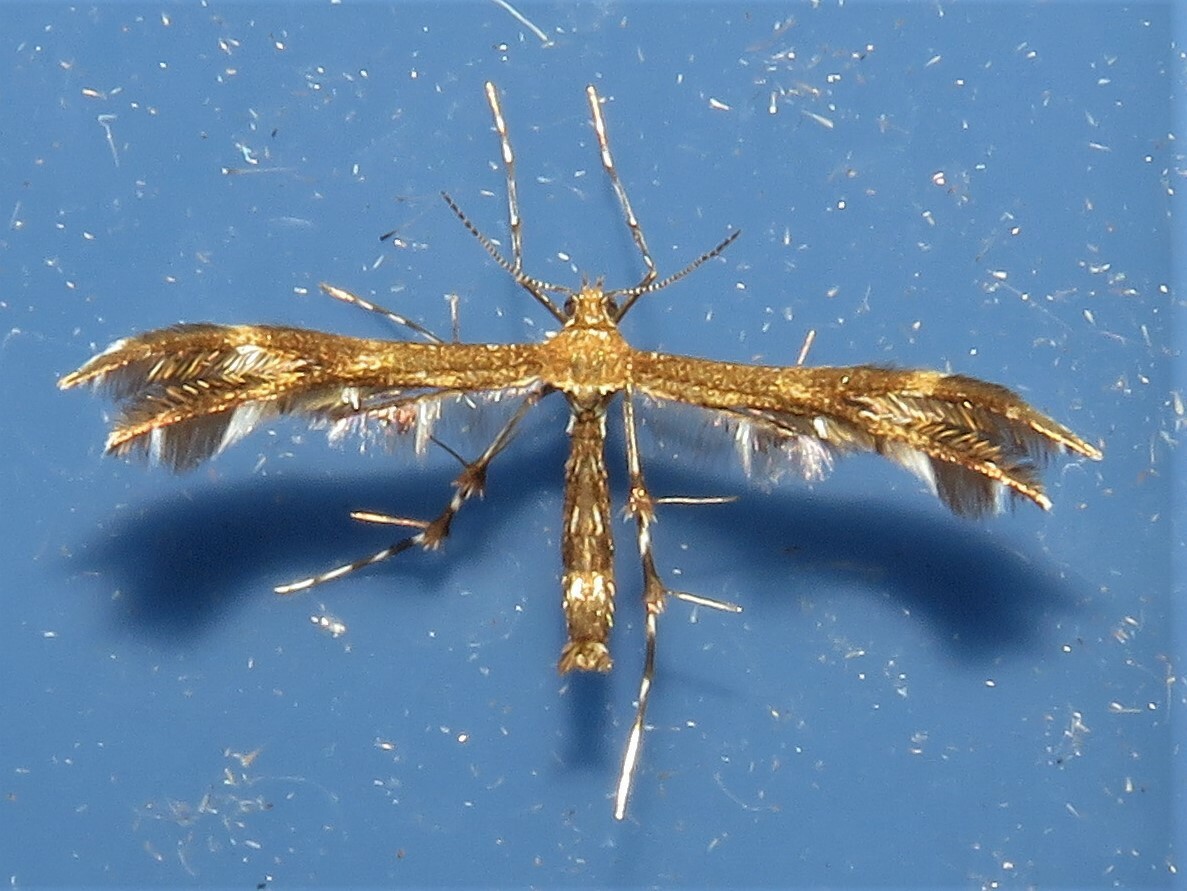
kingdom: Animalia
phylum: Arthropoda
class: Insecta
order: Lepidoptera
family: Pterophoridae
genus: Dejongia
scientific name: Dejongia lobidactylus
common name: Lobed plume moth
